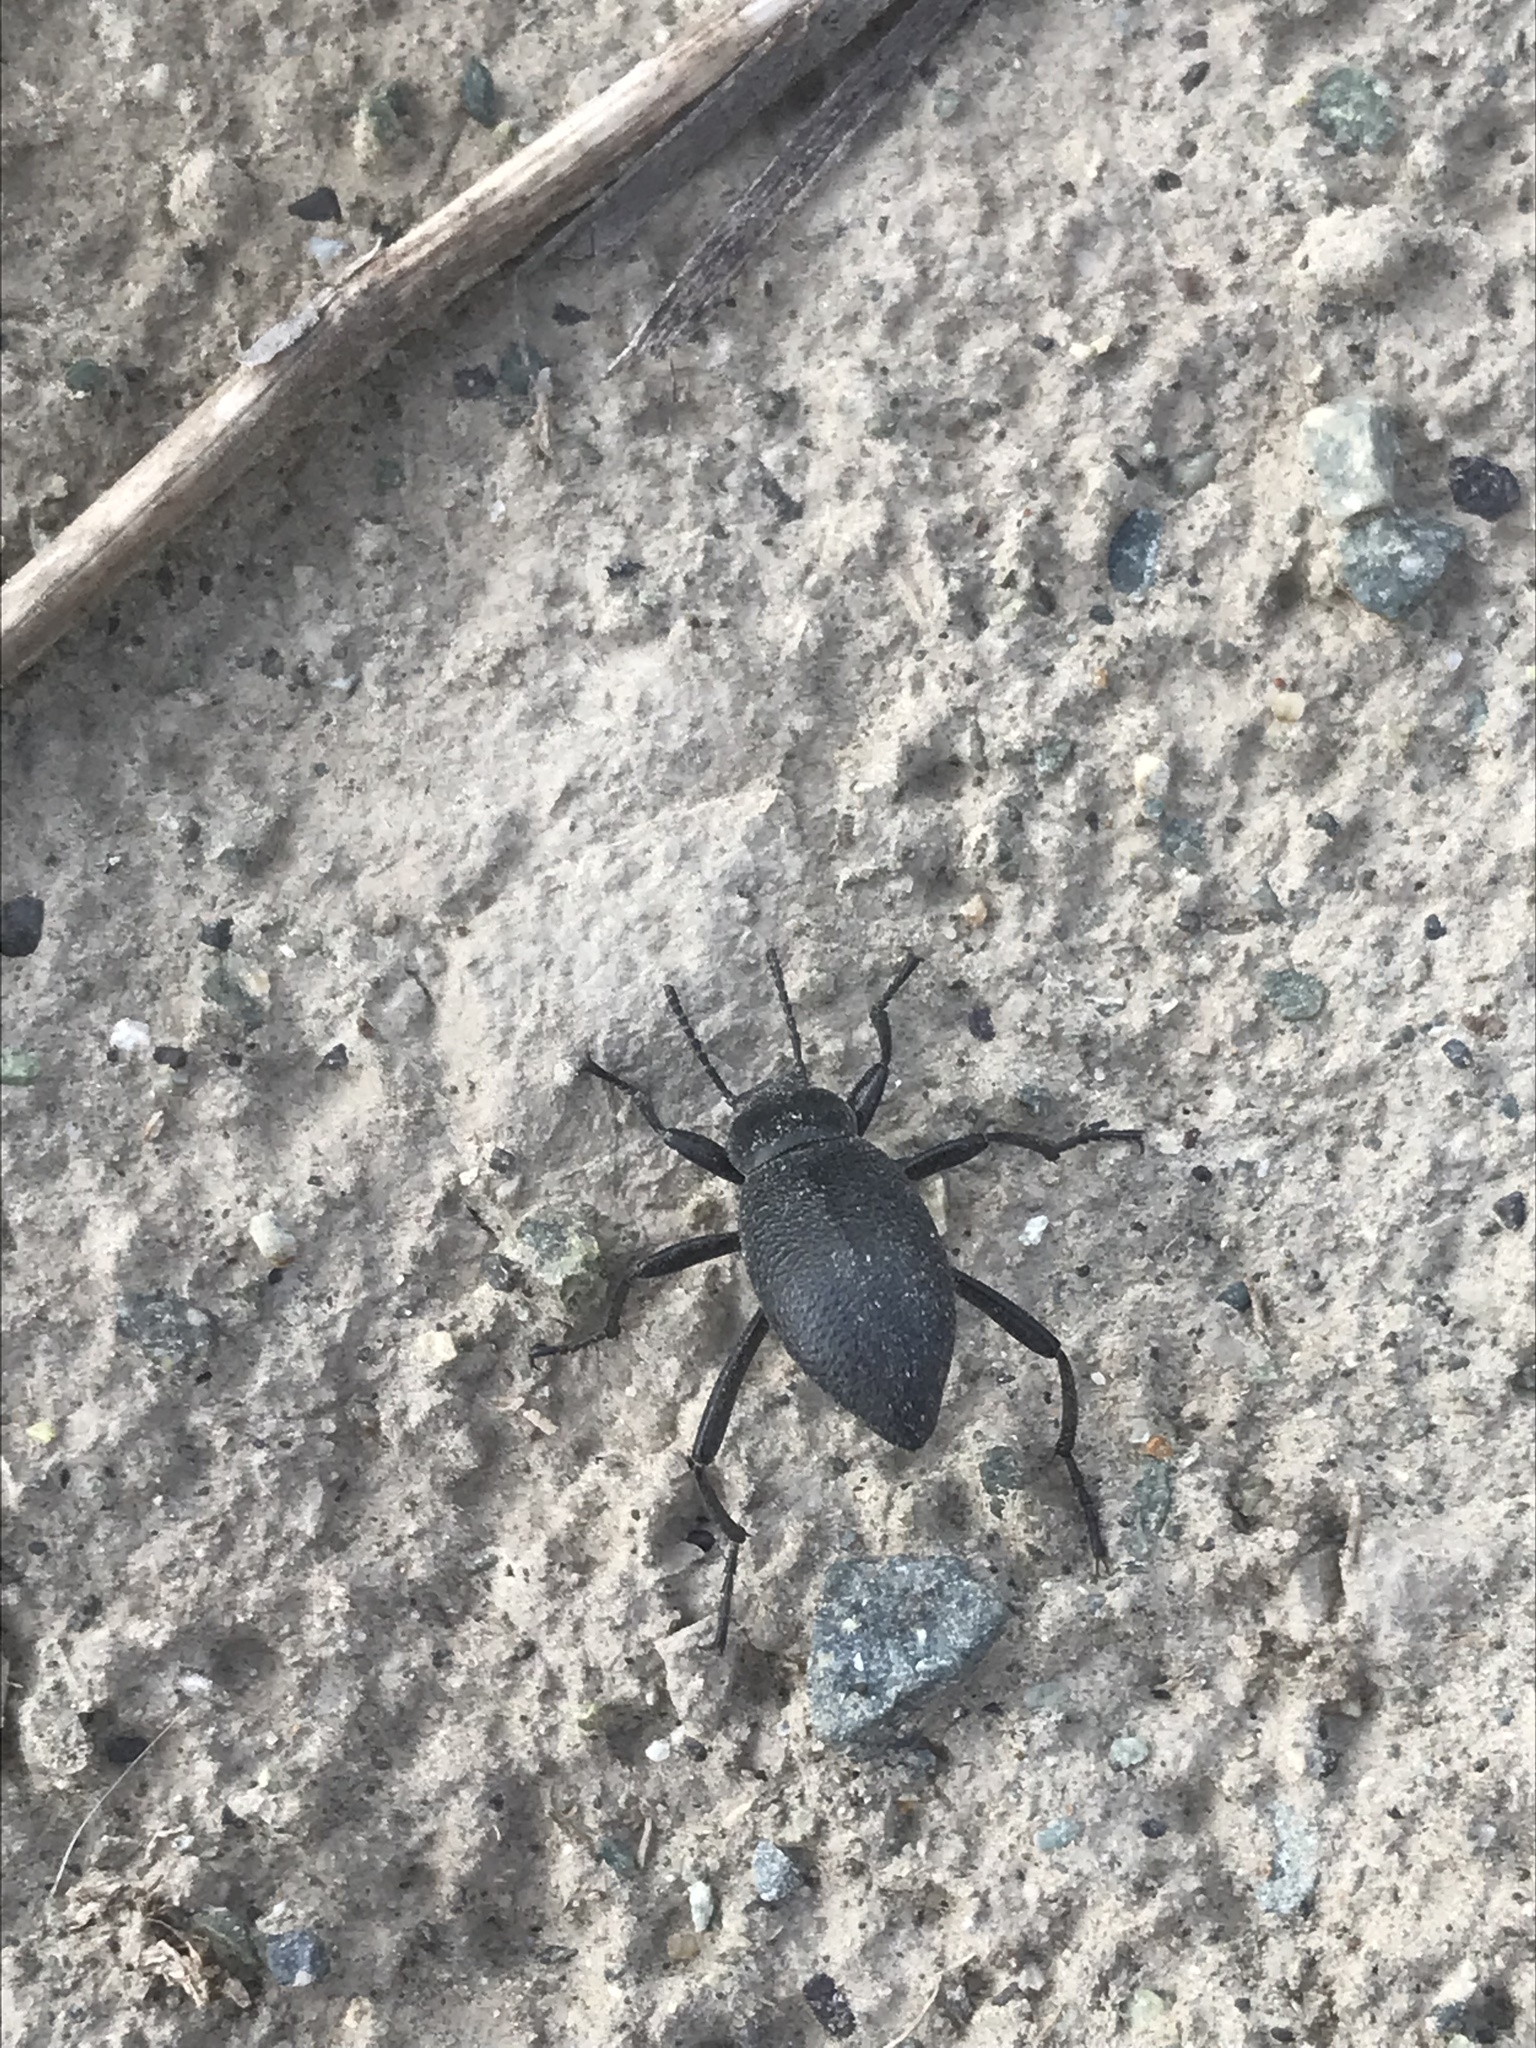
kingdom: Animalia
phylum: Arthropoda
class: Insecta
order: Coleoptera
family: Tenebrionidae
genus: Eleodes
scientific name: Eleodes granulata
